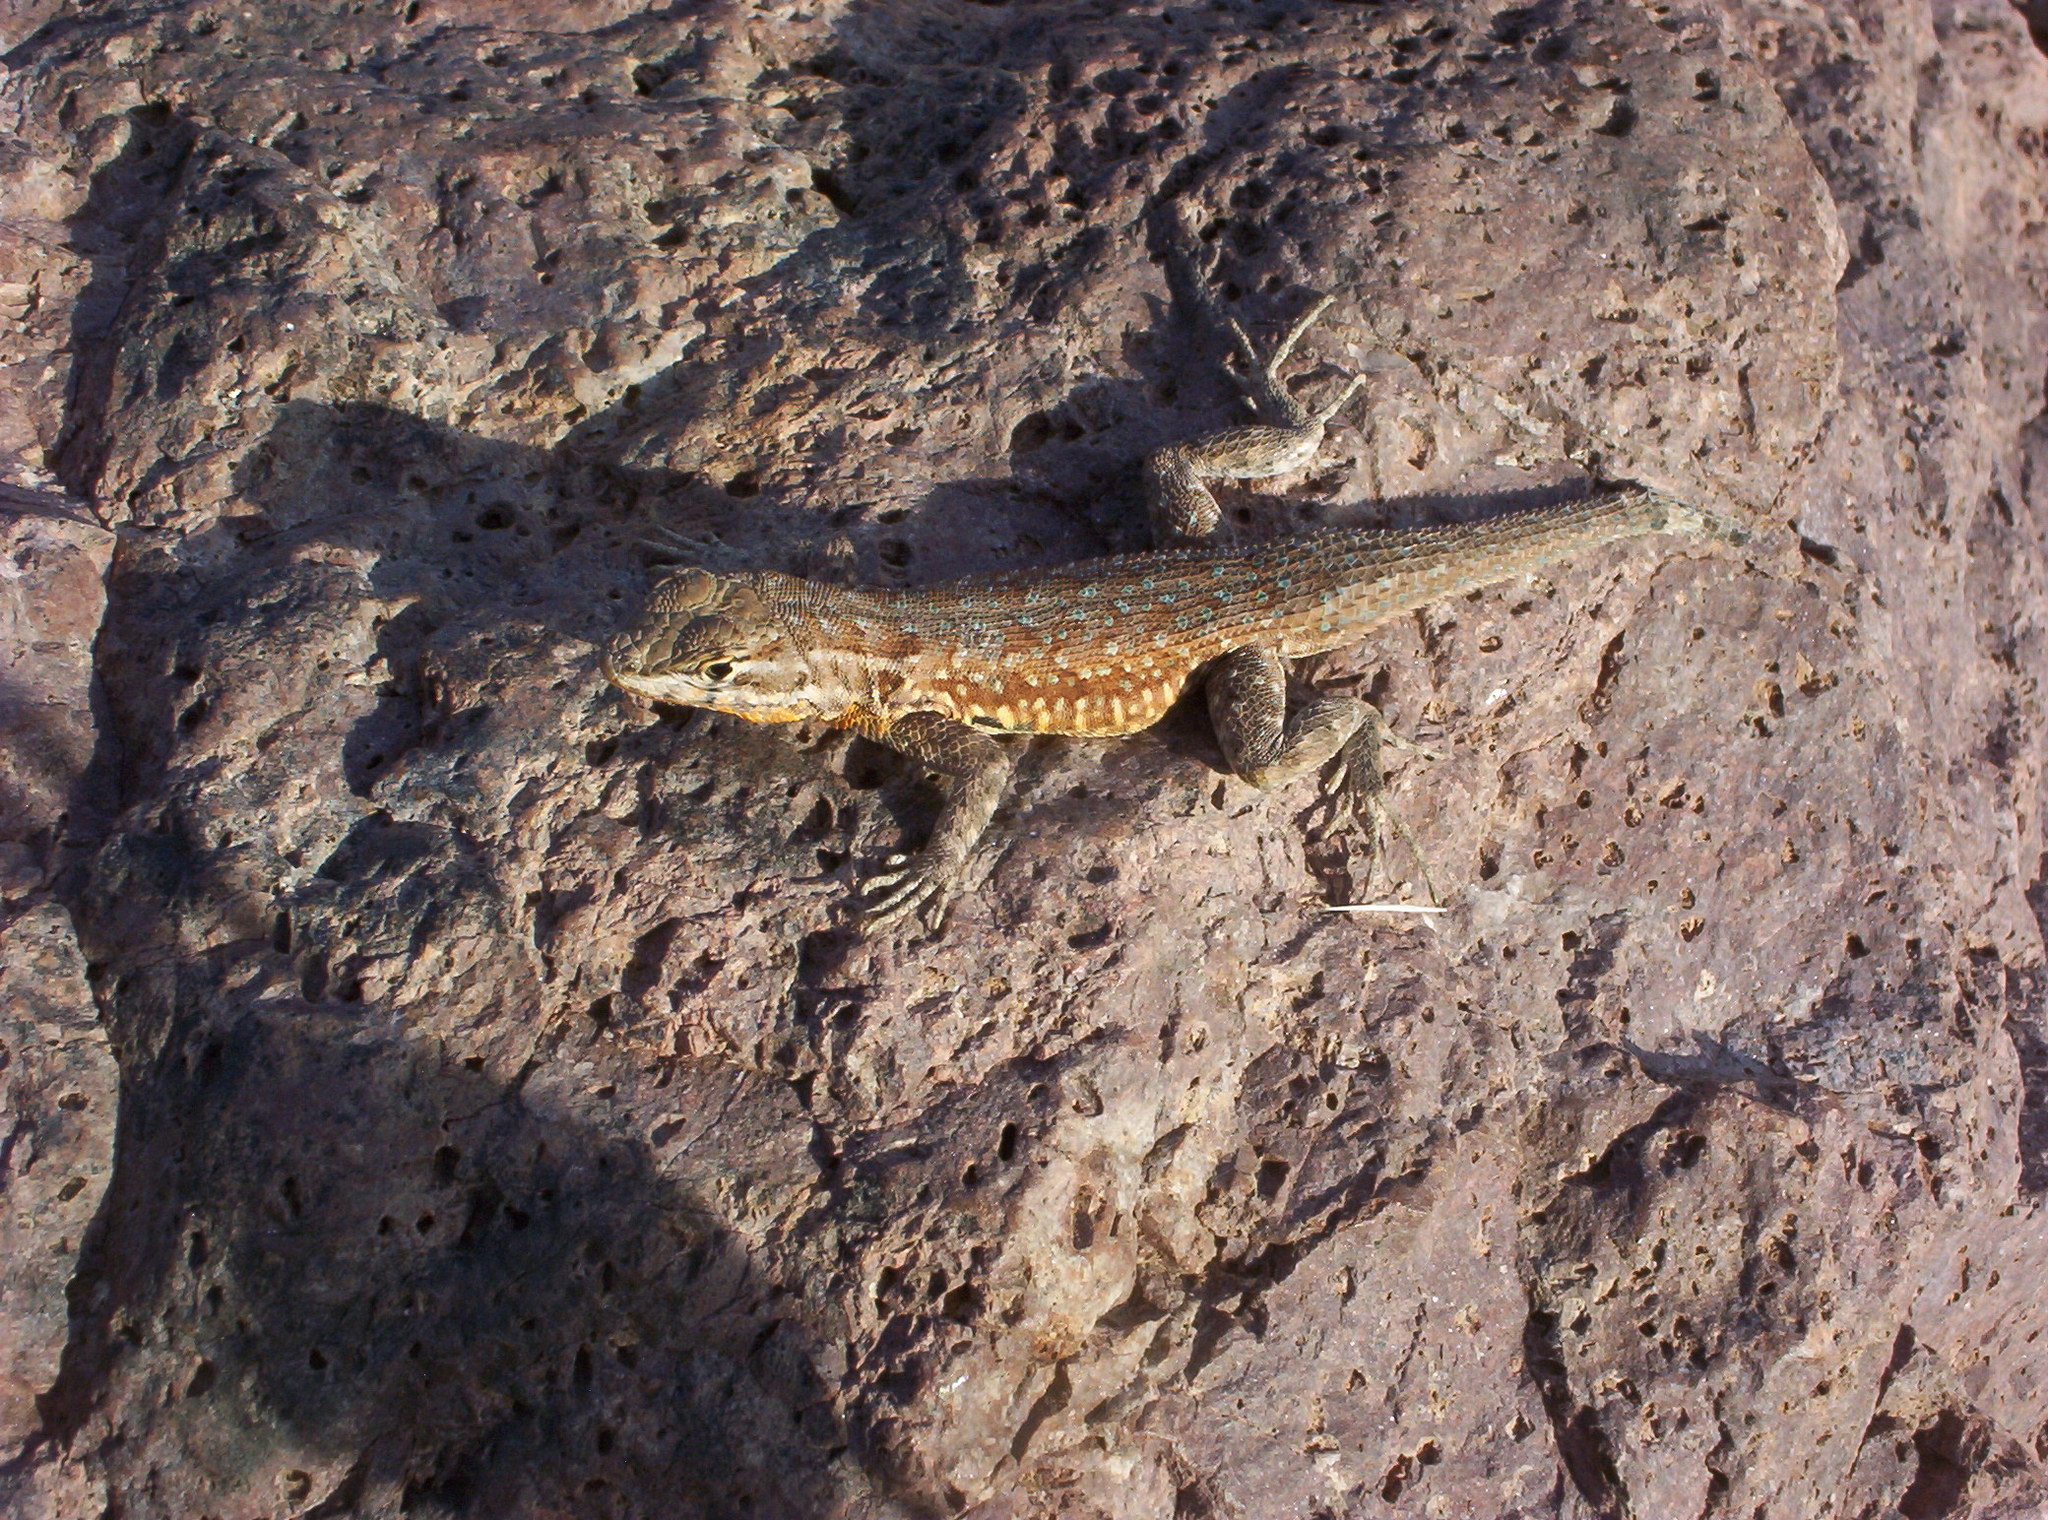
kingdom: Animalia
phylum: Chordata
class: Squamata
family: Phrynosomatidae
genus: Uta
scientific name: Uta stansburiana
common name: Side-blotched lizard
